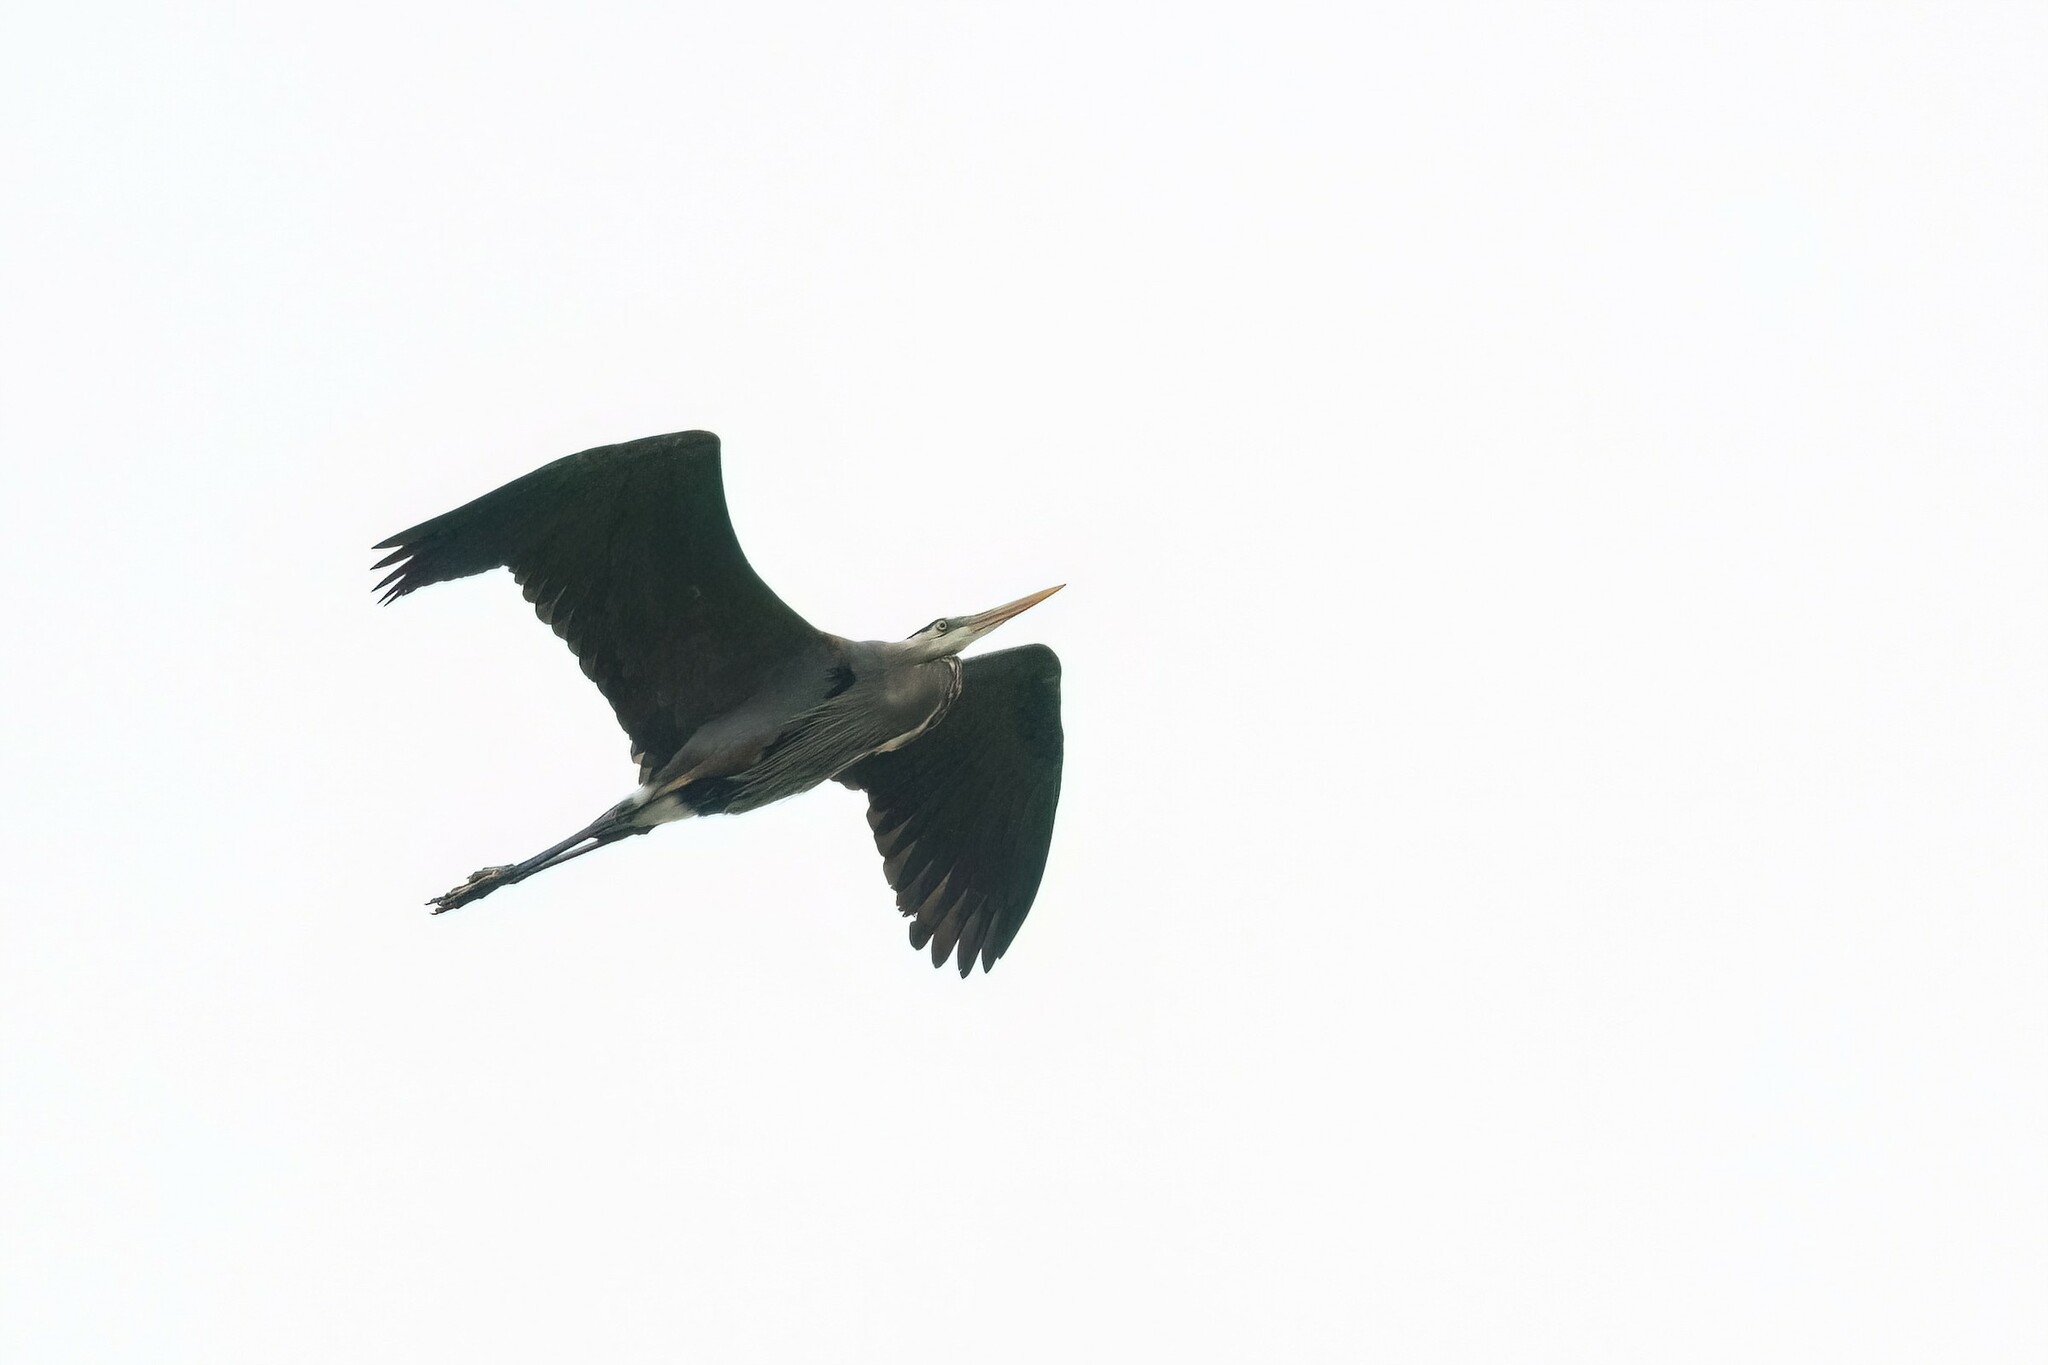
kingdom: Animalia
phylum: Chordata
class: Aves
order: Pelecaniformes
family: Ardeidae
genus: Ardea
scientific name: Ardea herodias
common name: Great blue heron
